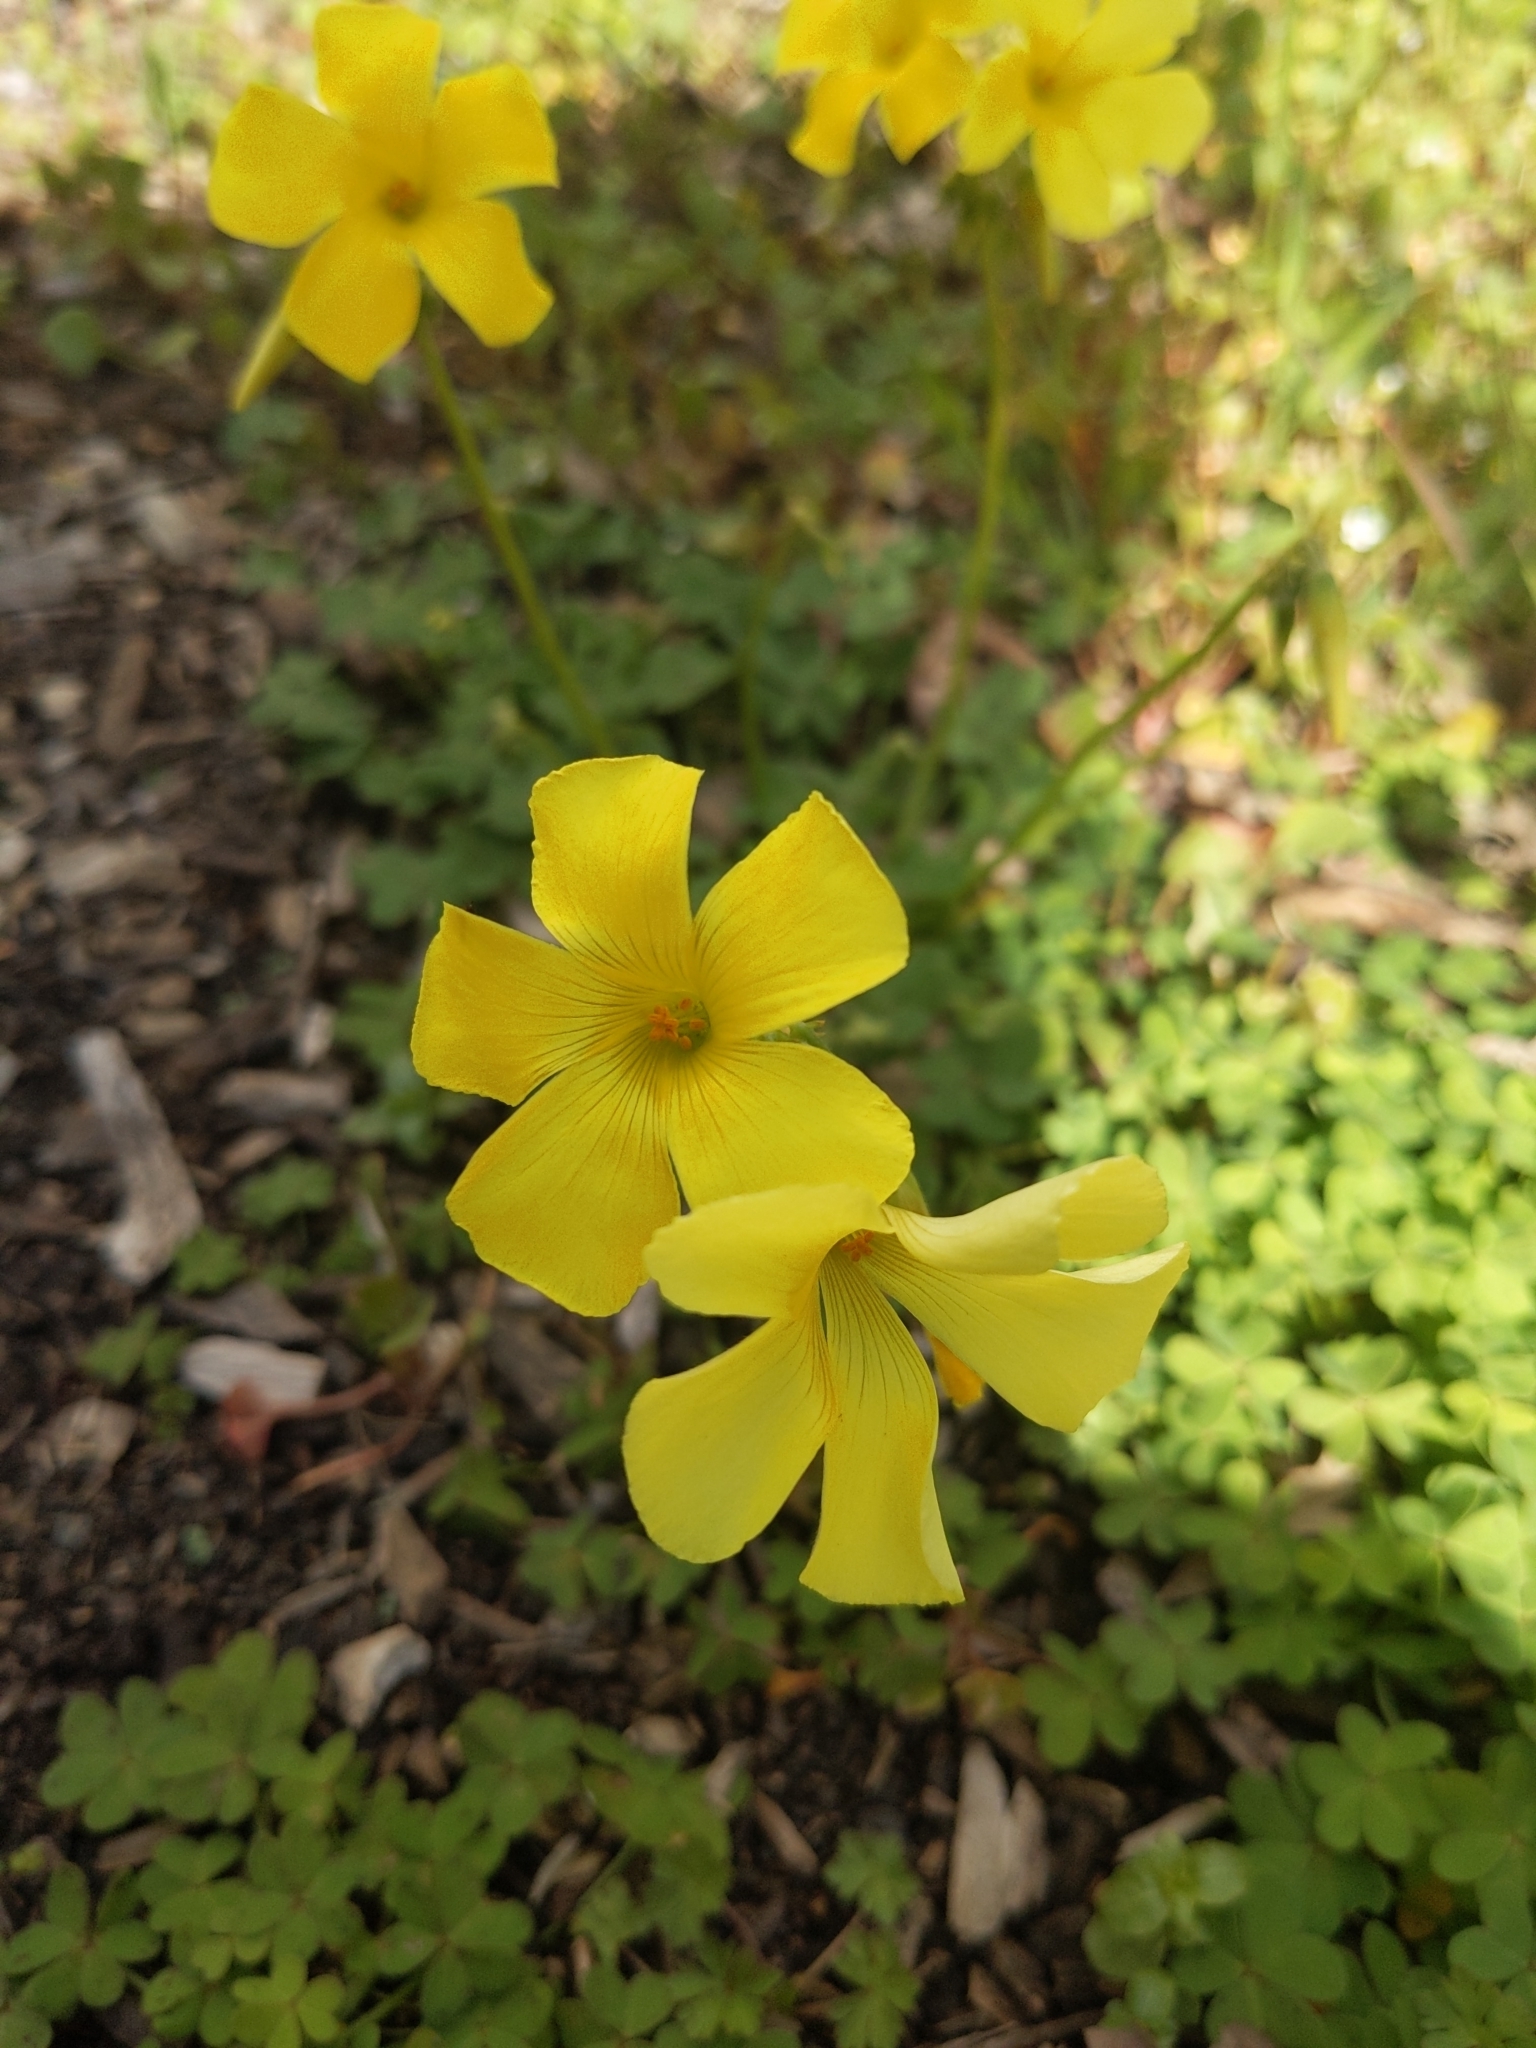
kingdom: Plantae
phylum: Tracheophyta
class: Magnoliopsida
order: Oxalidales
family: Oxalidaceae
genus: Oxalis
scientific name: Oxalis pes-caprae
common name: Bermuda-buttercup
